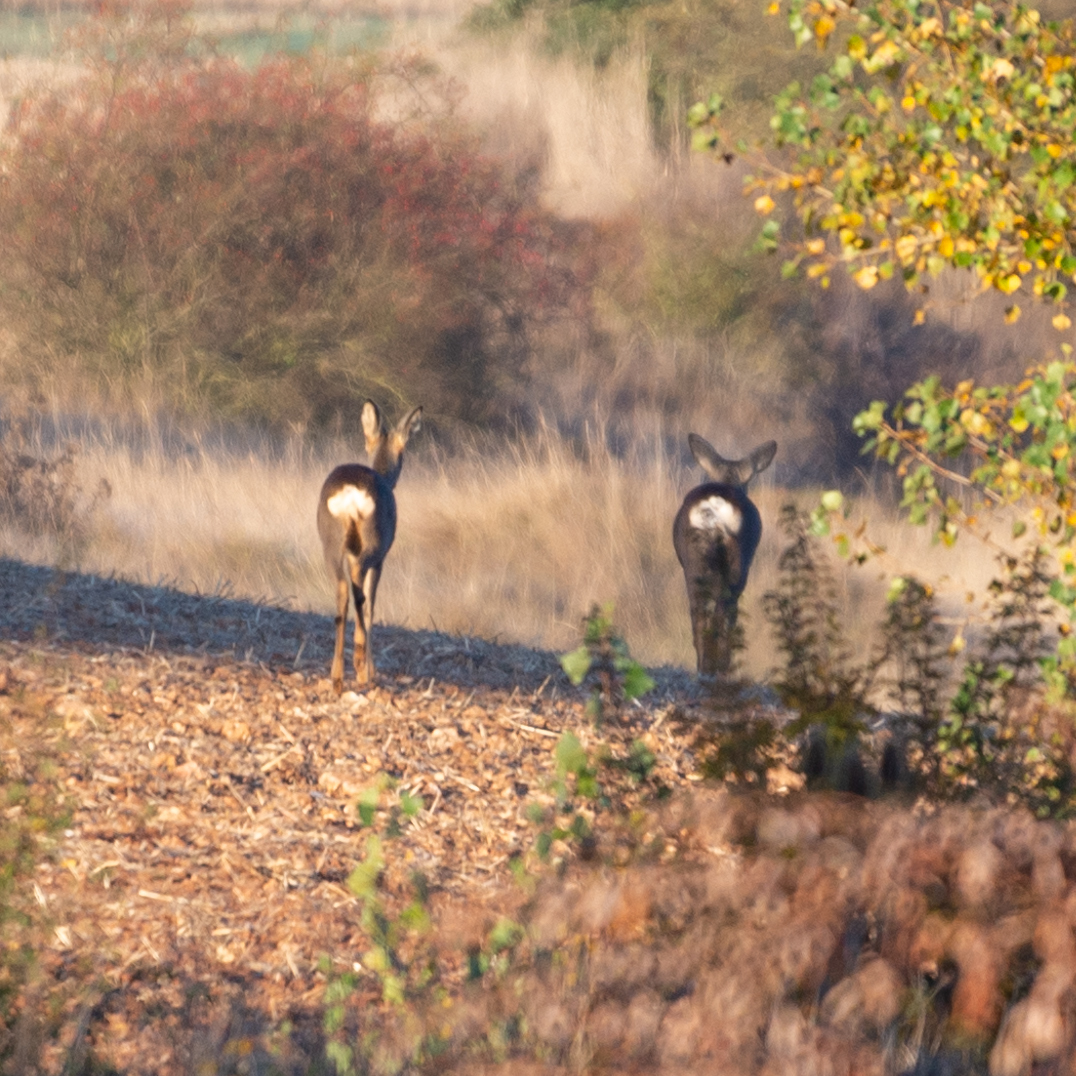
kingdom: Animalia
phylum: Chordata
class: Mammalia
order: Artiodactyla
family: Cervidae
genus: Capreolus
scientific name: Capreolus capreolus
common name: Western roe deer
